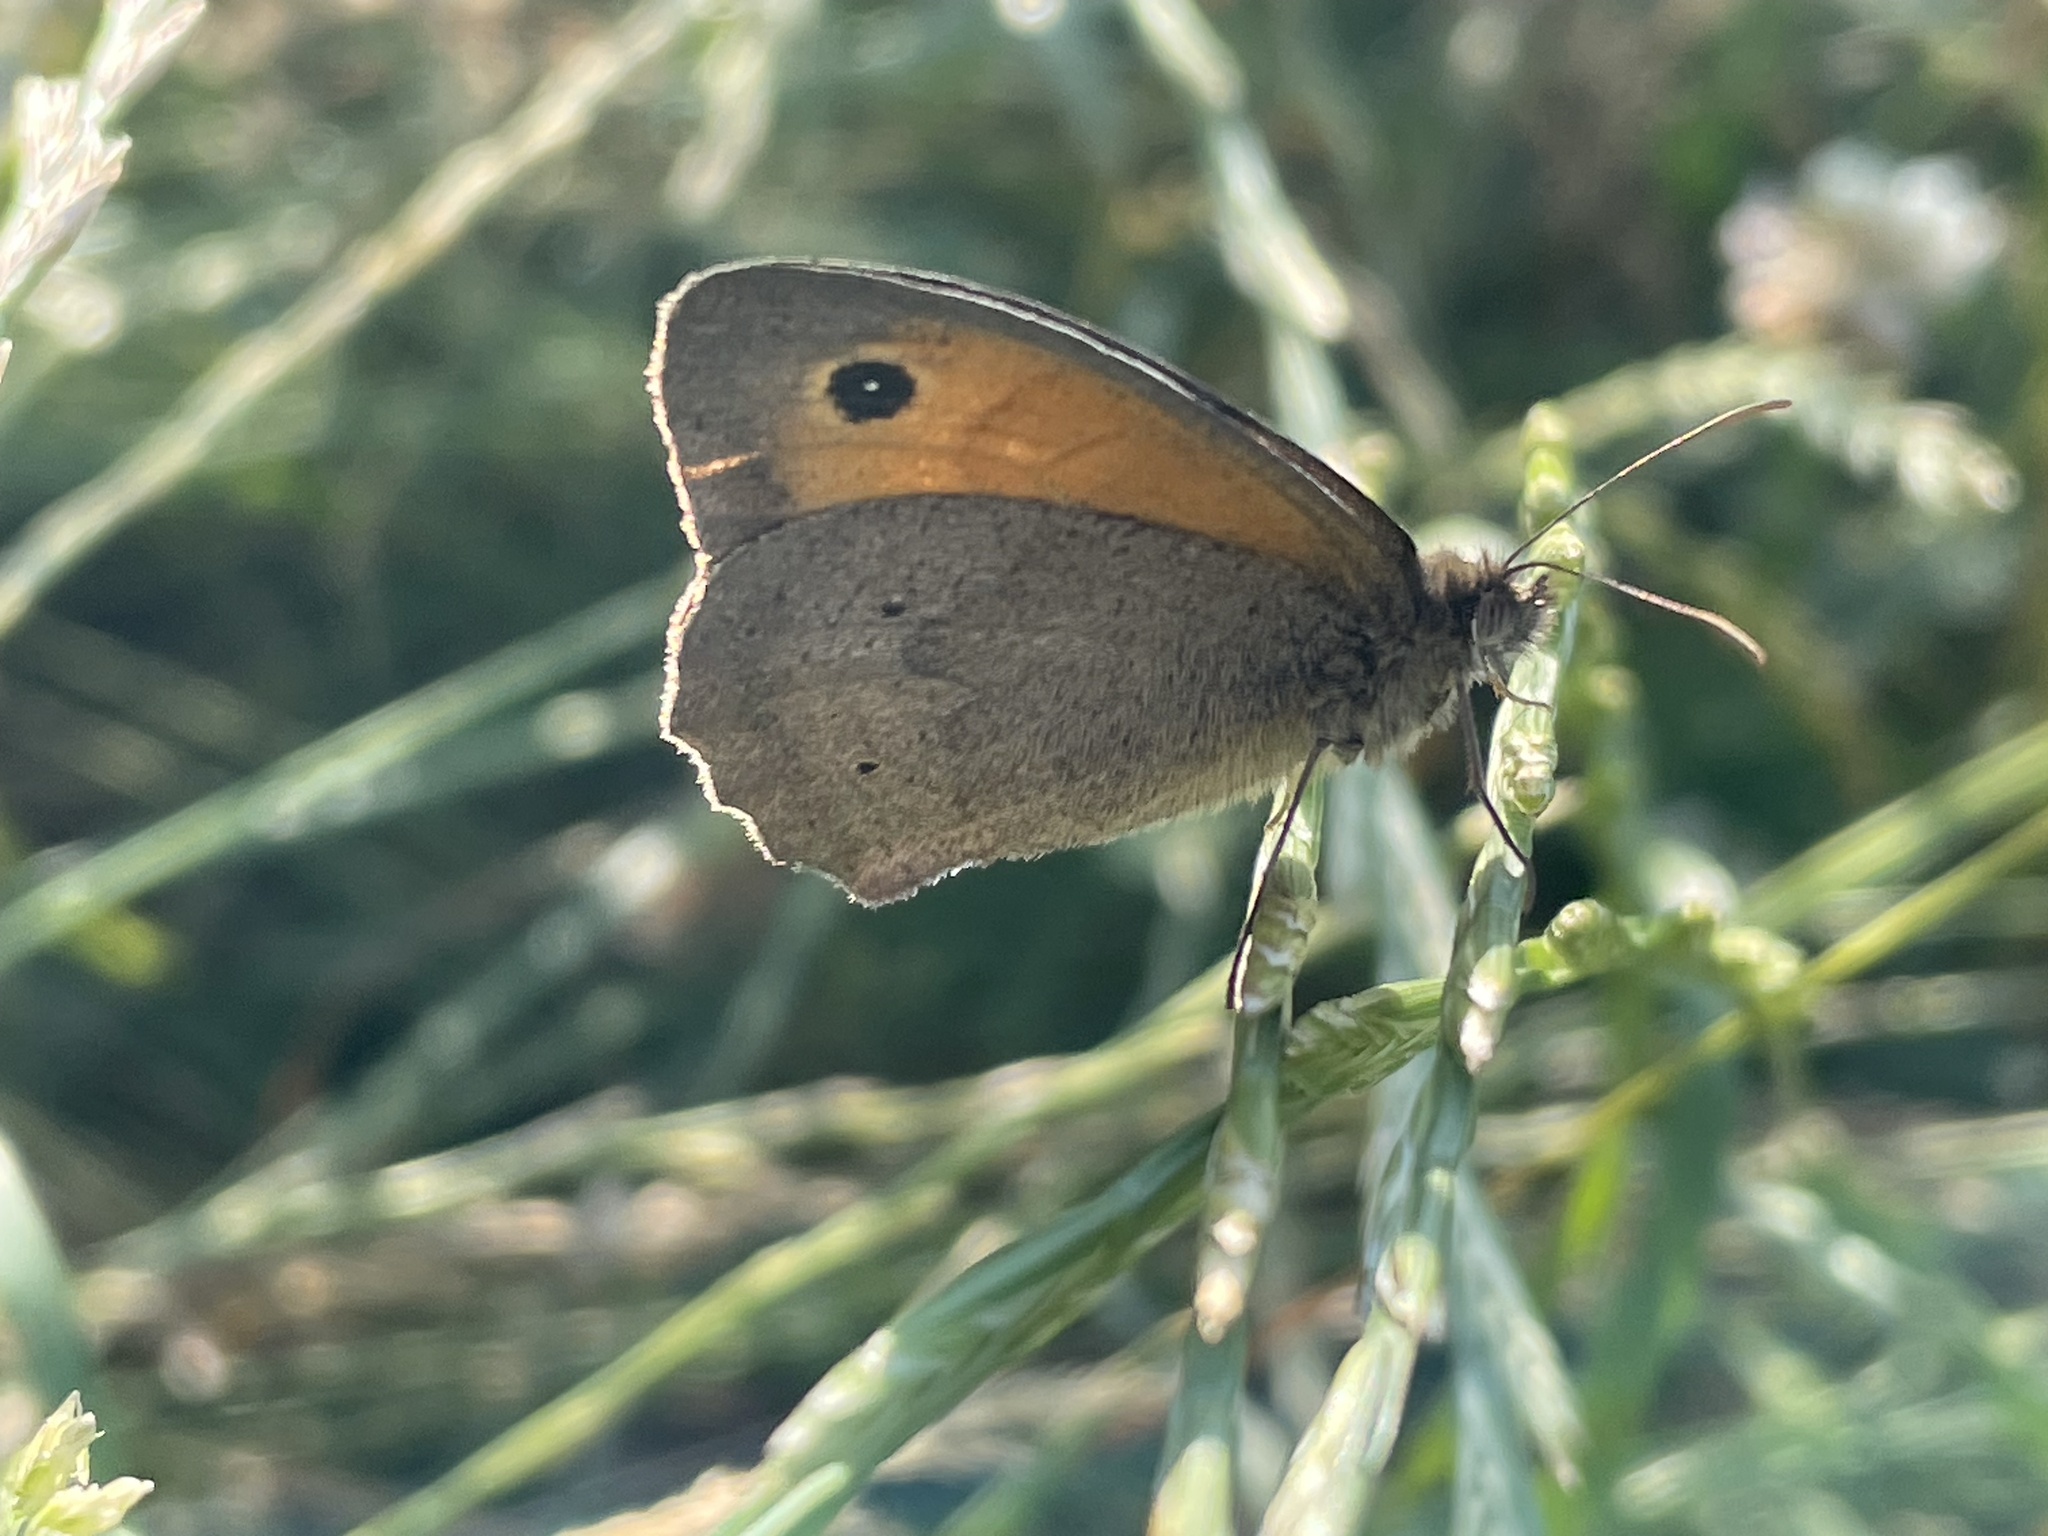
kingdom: Animalia
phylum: Arthropoda
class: Insecta
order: Lepidoptera
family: Nymphalidae
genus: Maniola
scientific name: Maniola jurtina
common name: Meadow brown
